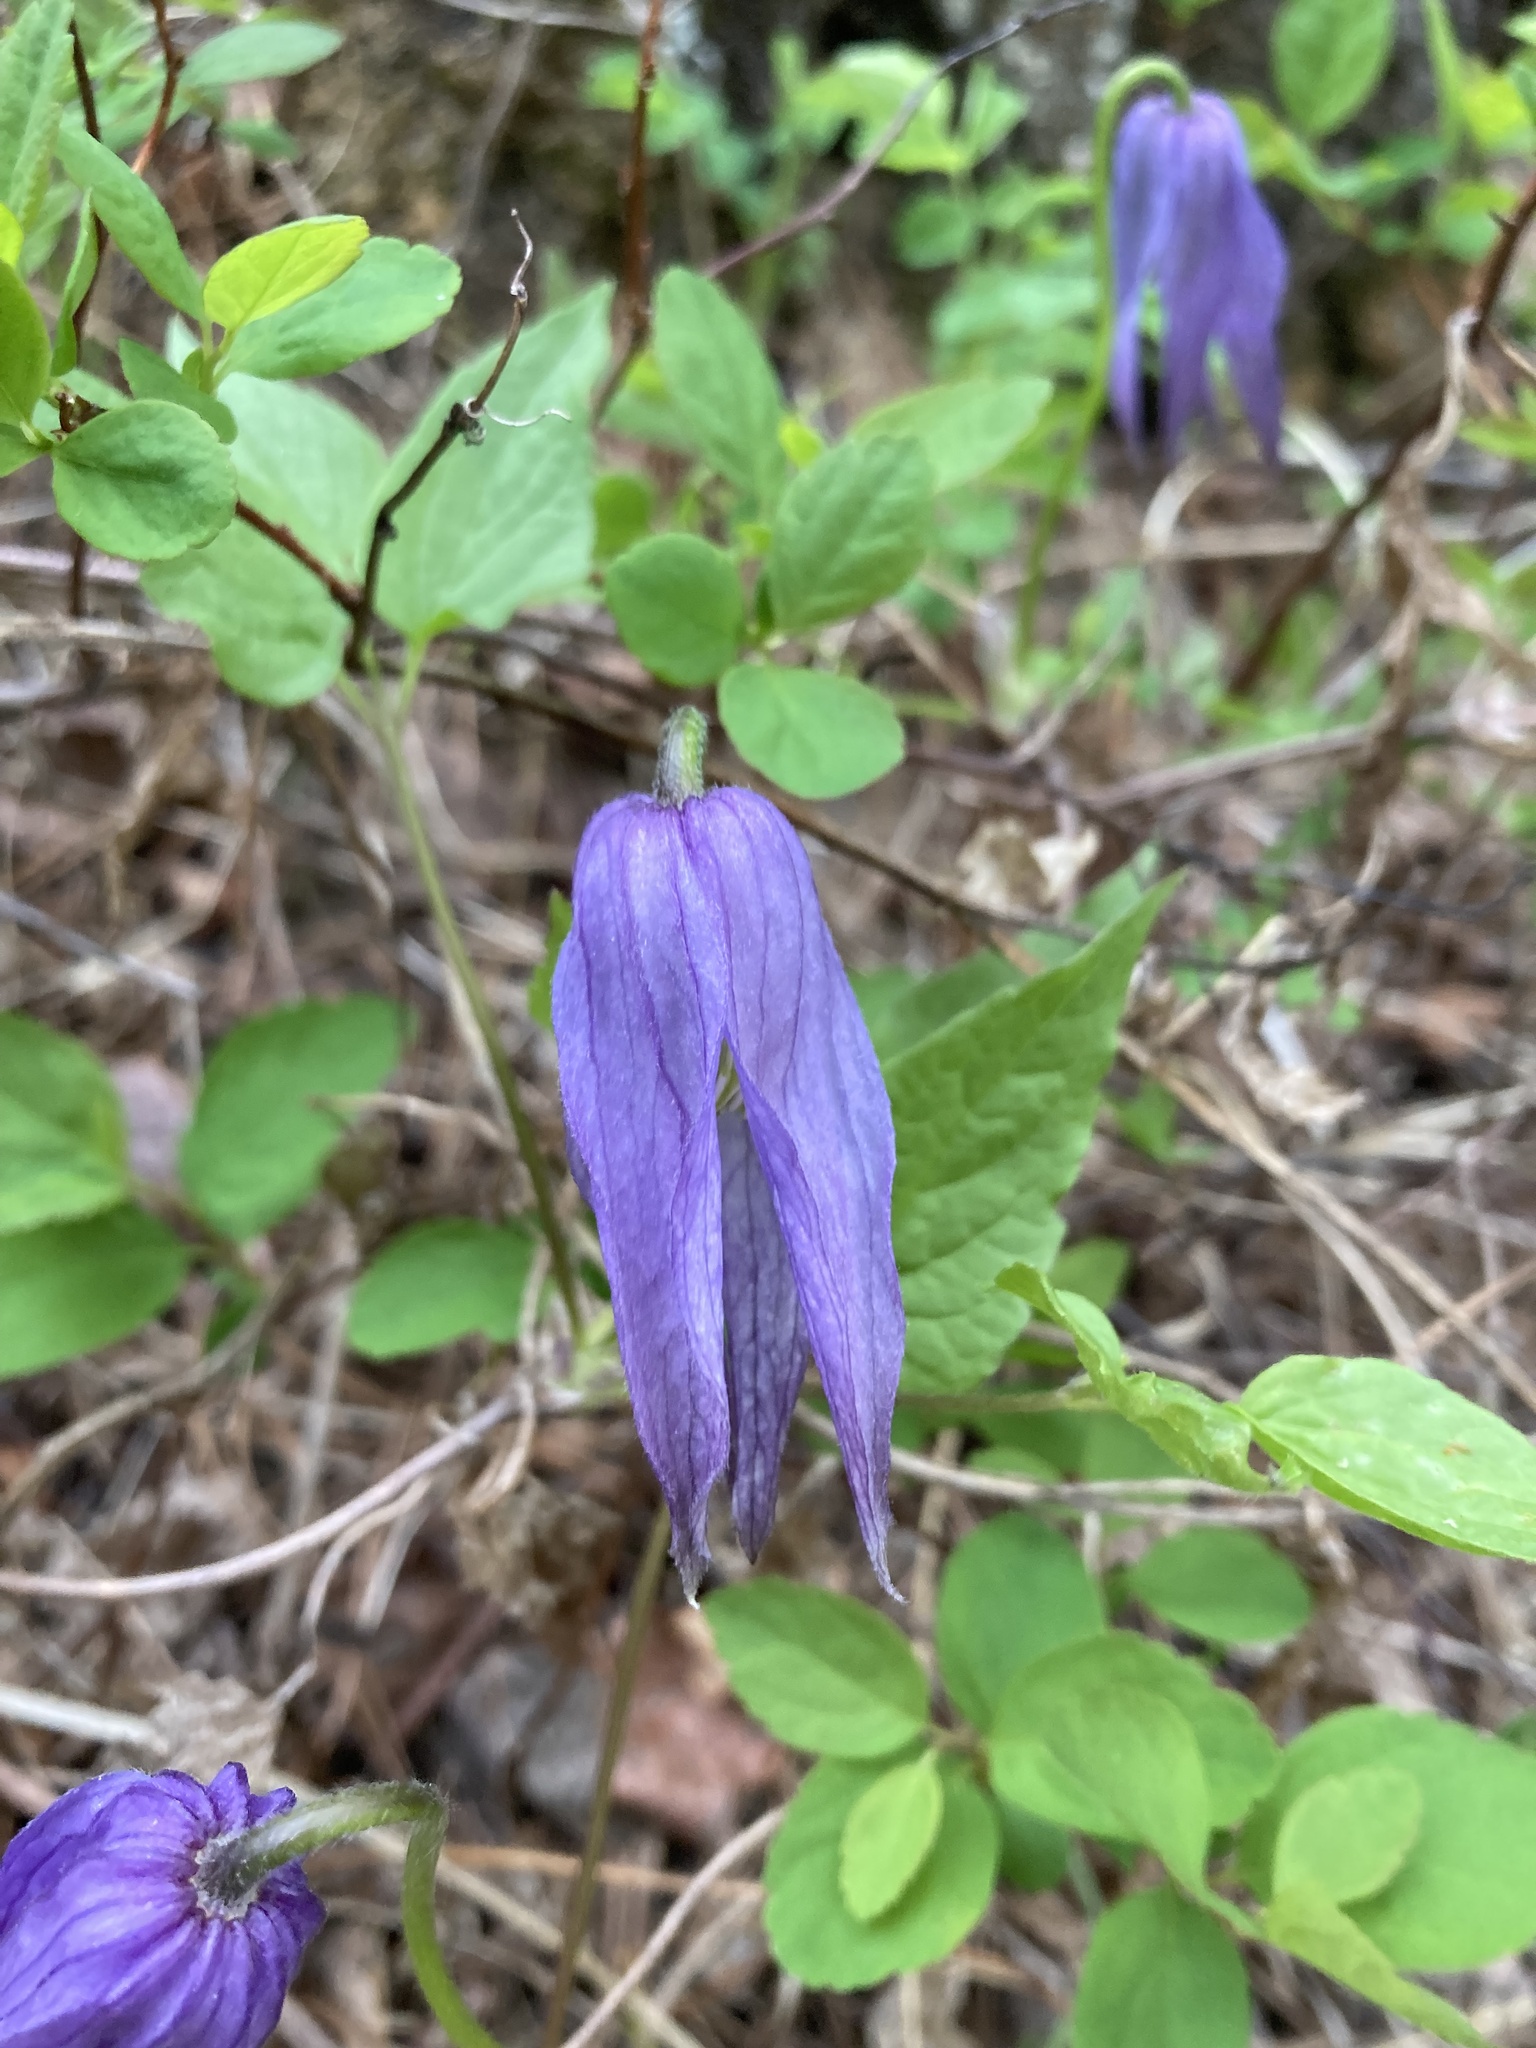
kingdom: Plantae
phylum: Tracheophyta
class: Magnoliopsida
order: Ranunculales
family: Ranunculaceae
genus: Clematis
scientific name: Clematis occidentalis
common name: Purple clematis
